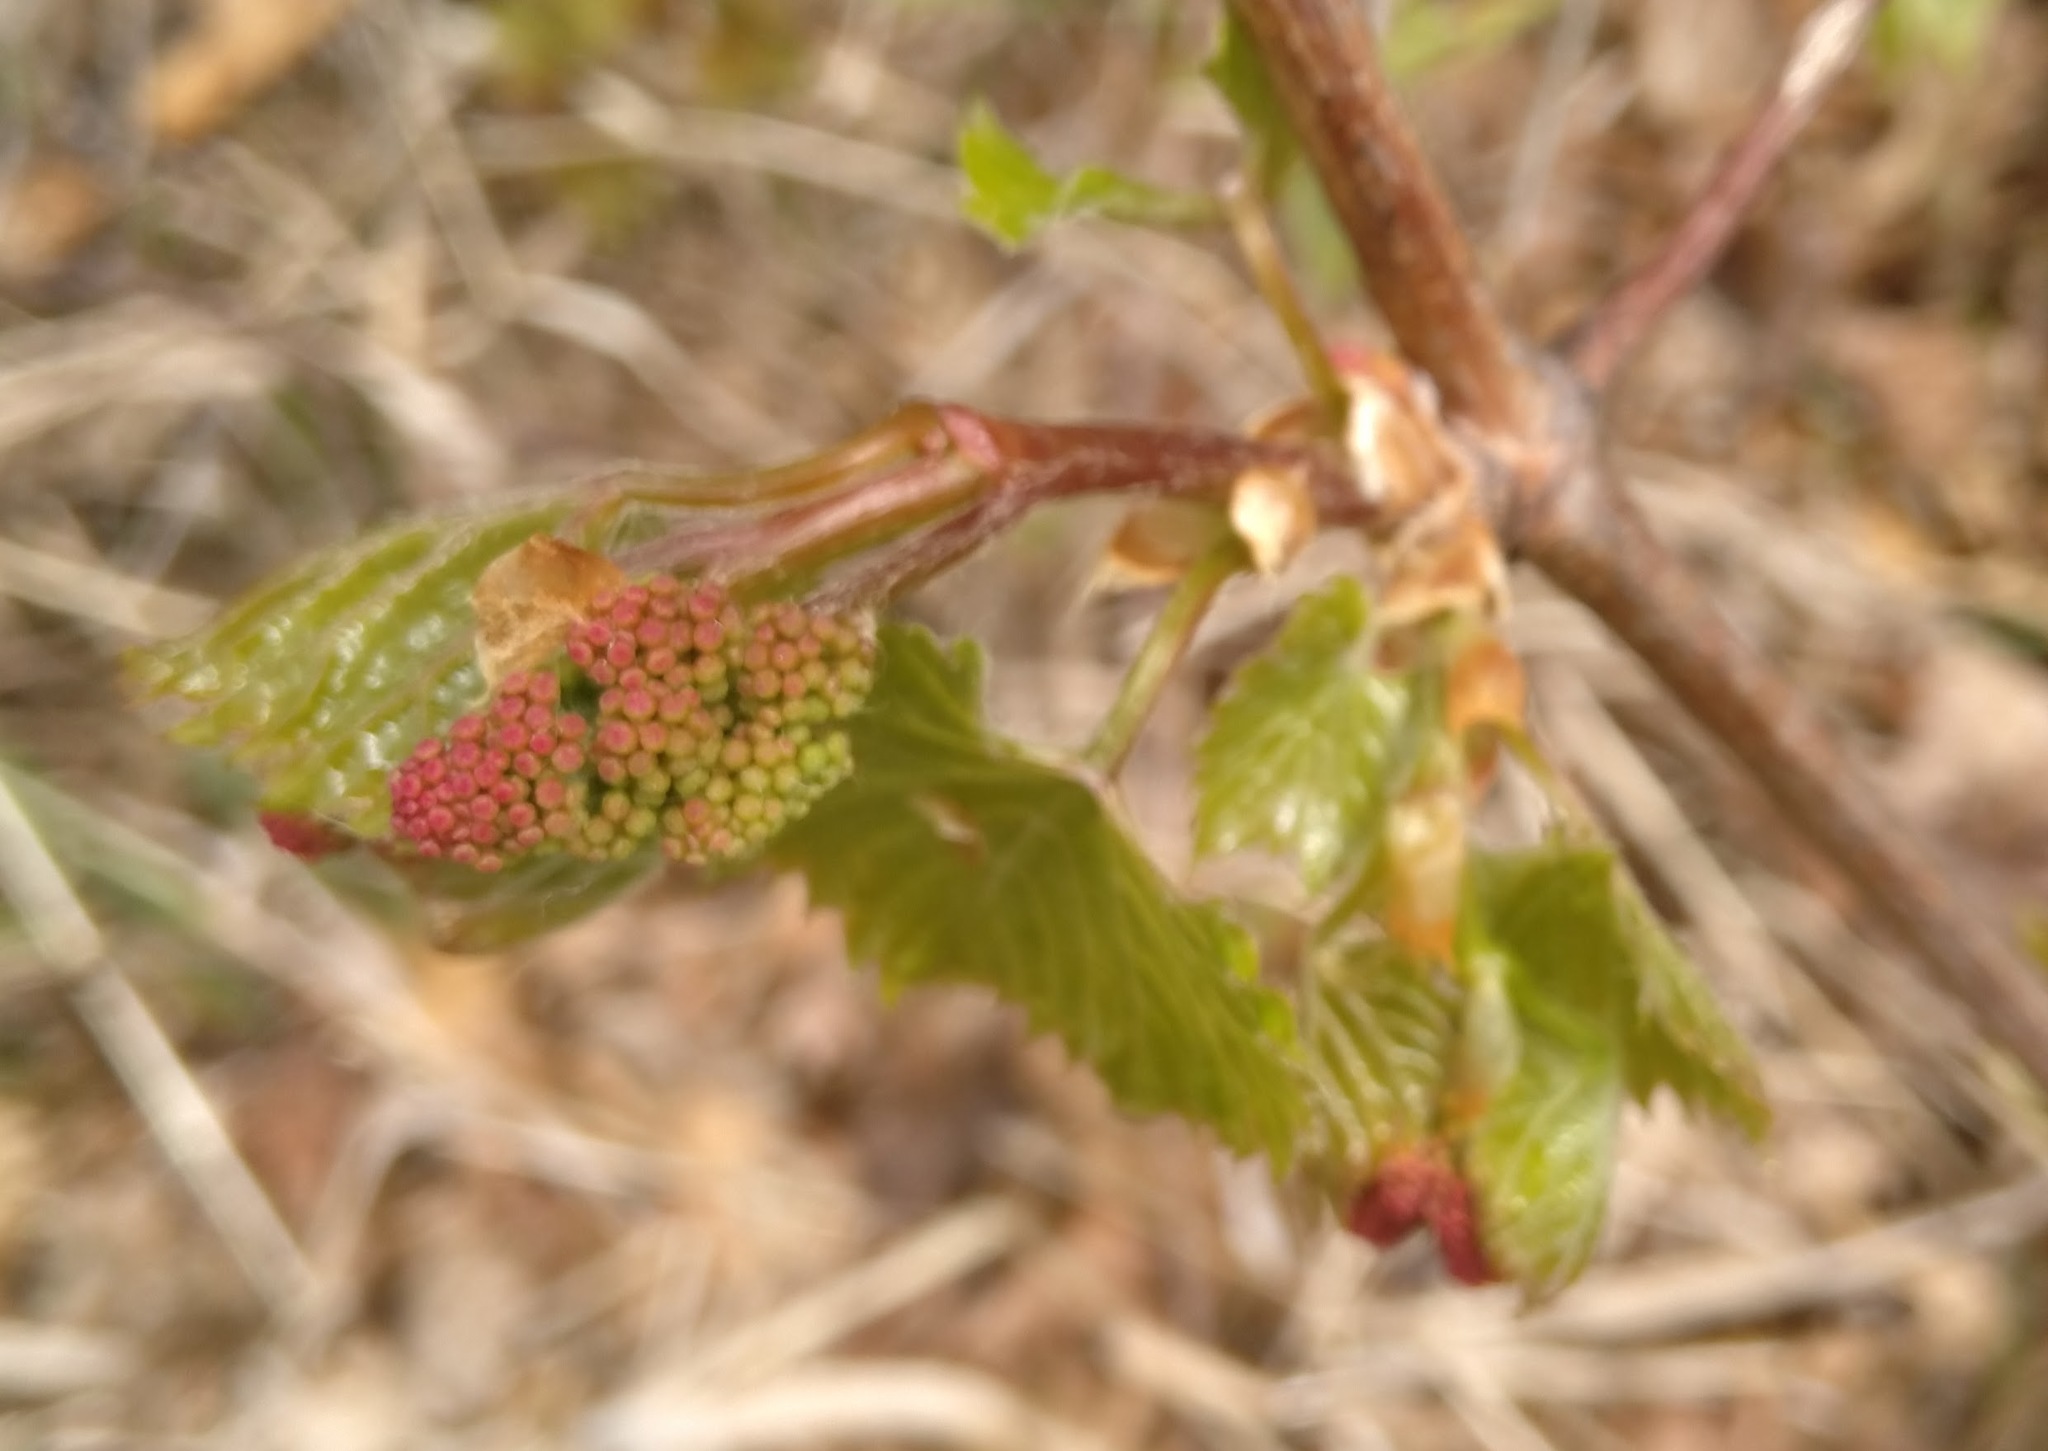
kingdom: Plantae
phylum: Tracheophyta
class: Magnoliopsida
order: Vitales
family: Vitaceae
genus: Vitis
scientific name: Vitis riparia
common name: Frost grape
